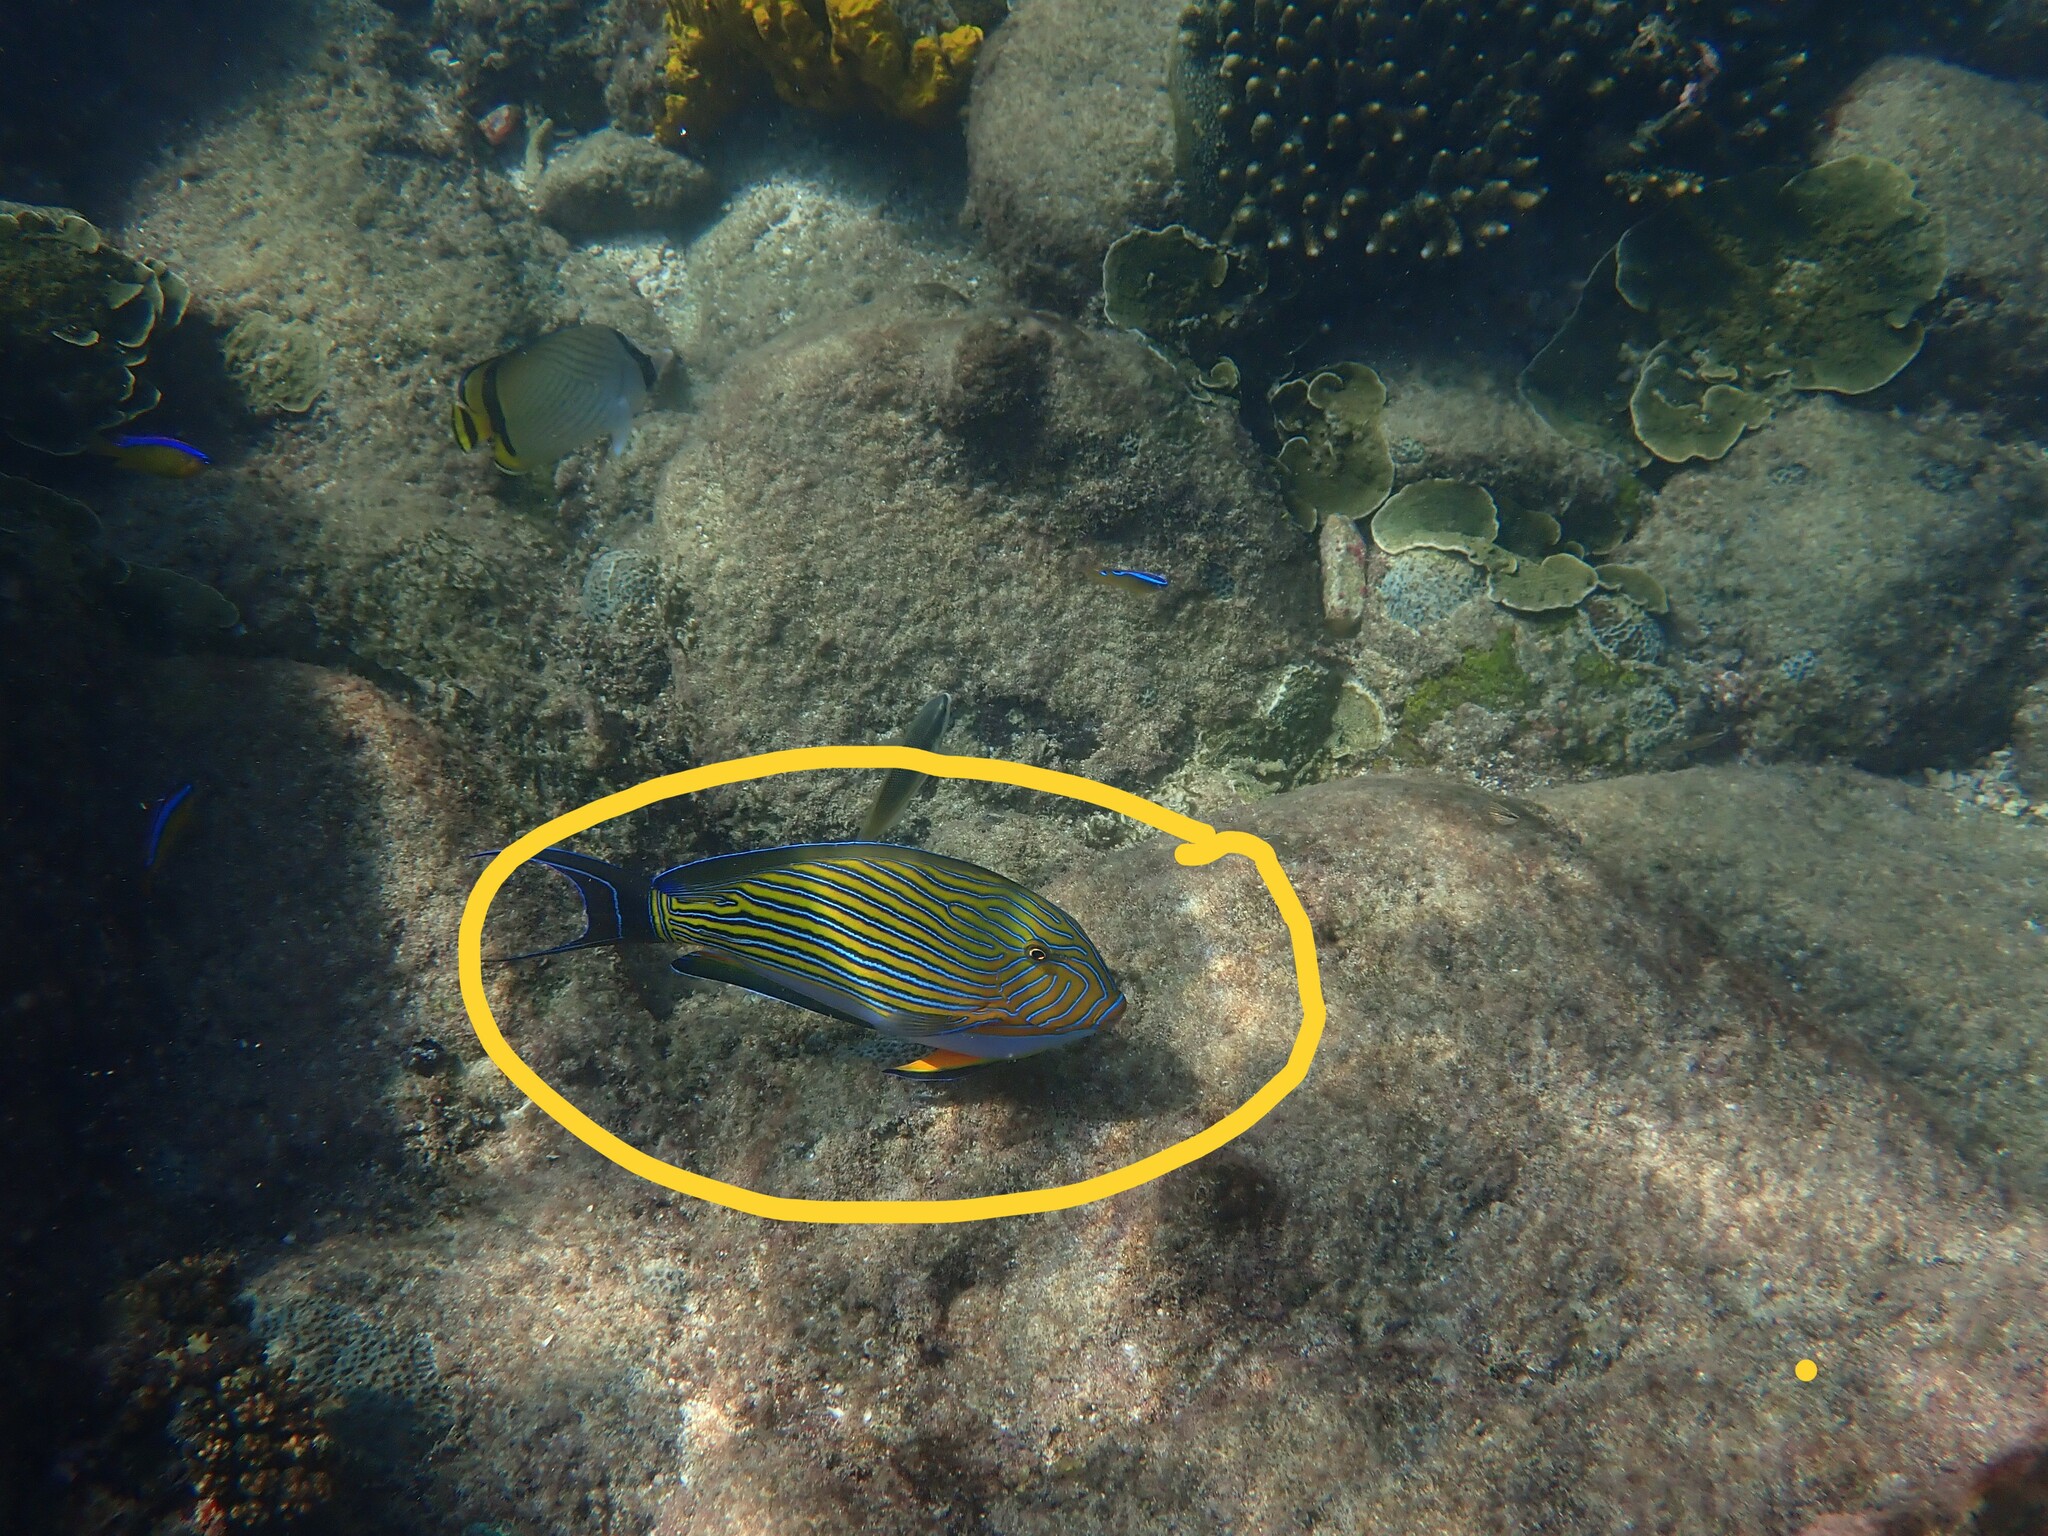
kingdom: Animalia
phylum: Chordata
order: Perciformes
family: Acanthuridae
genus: Acanthurus
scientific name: Acanthurus lineatus
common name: Striped surgeonfish
